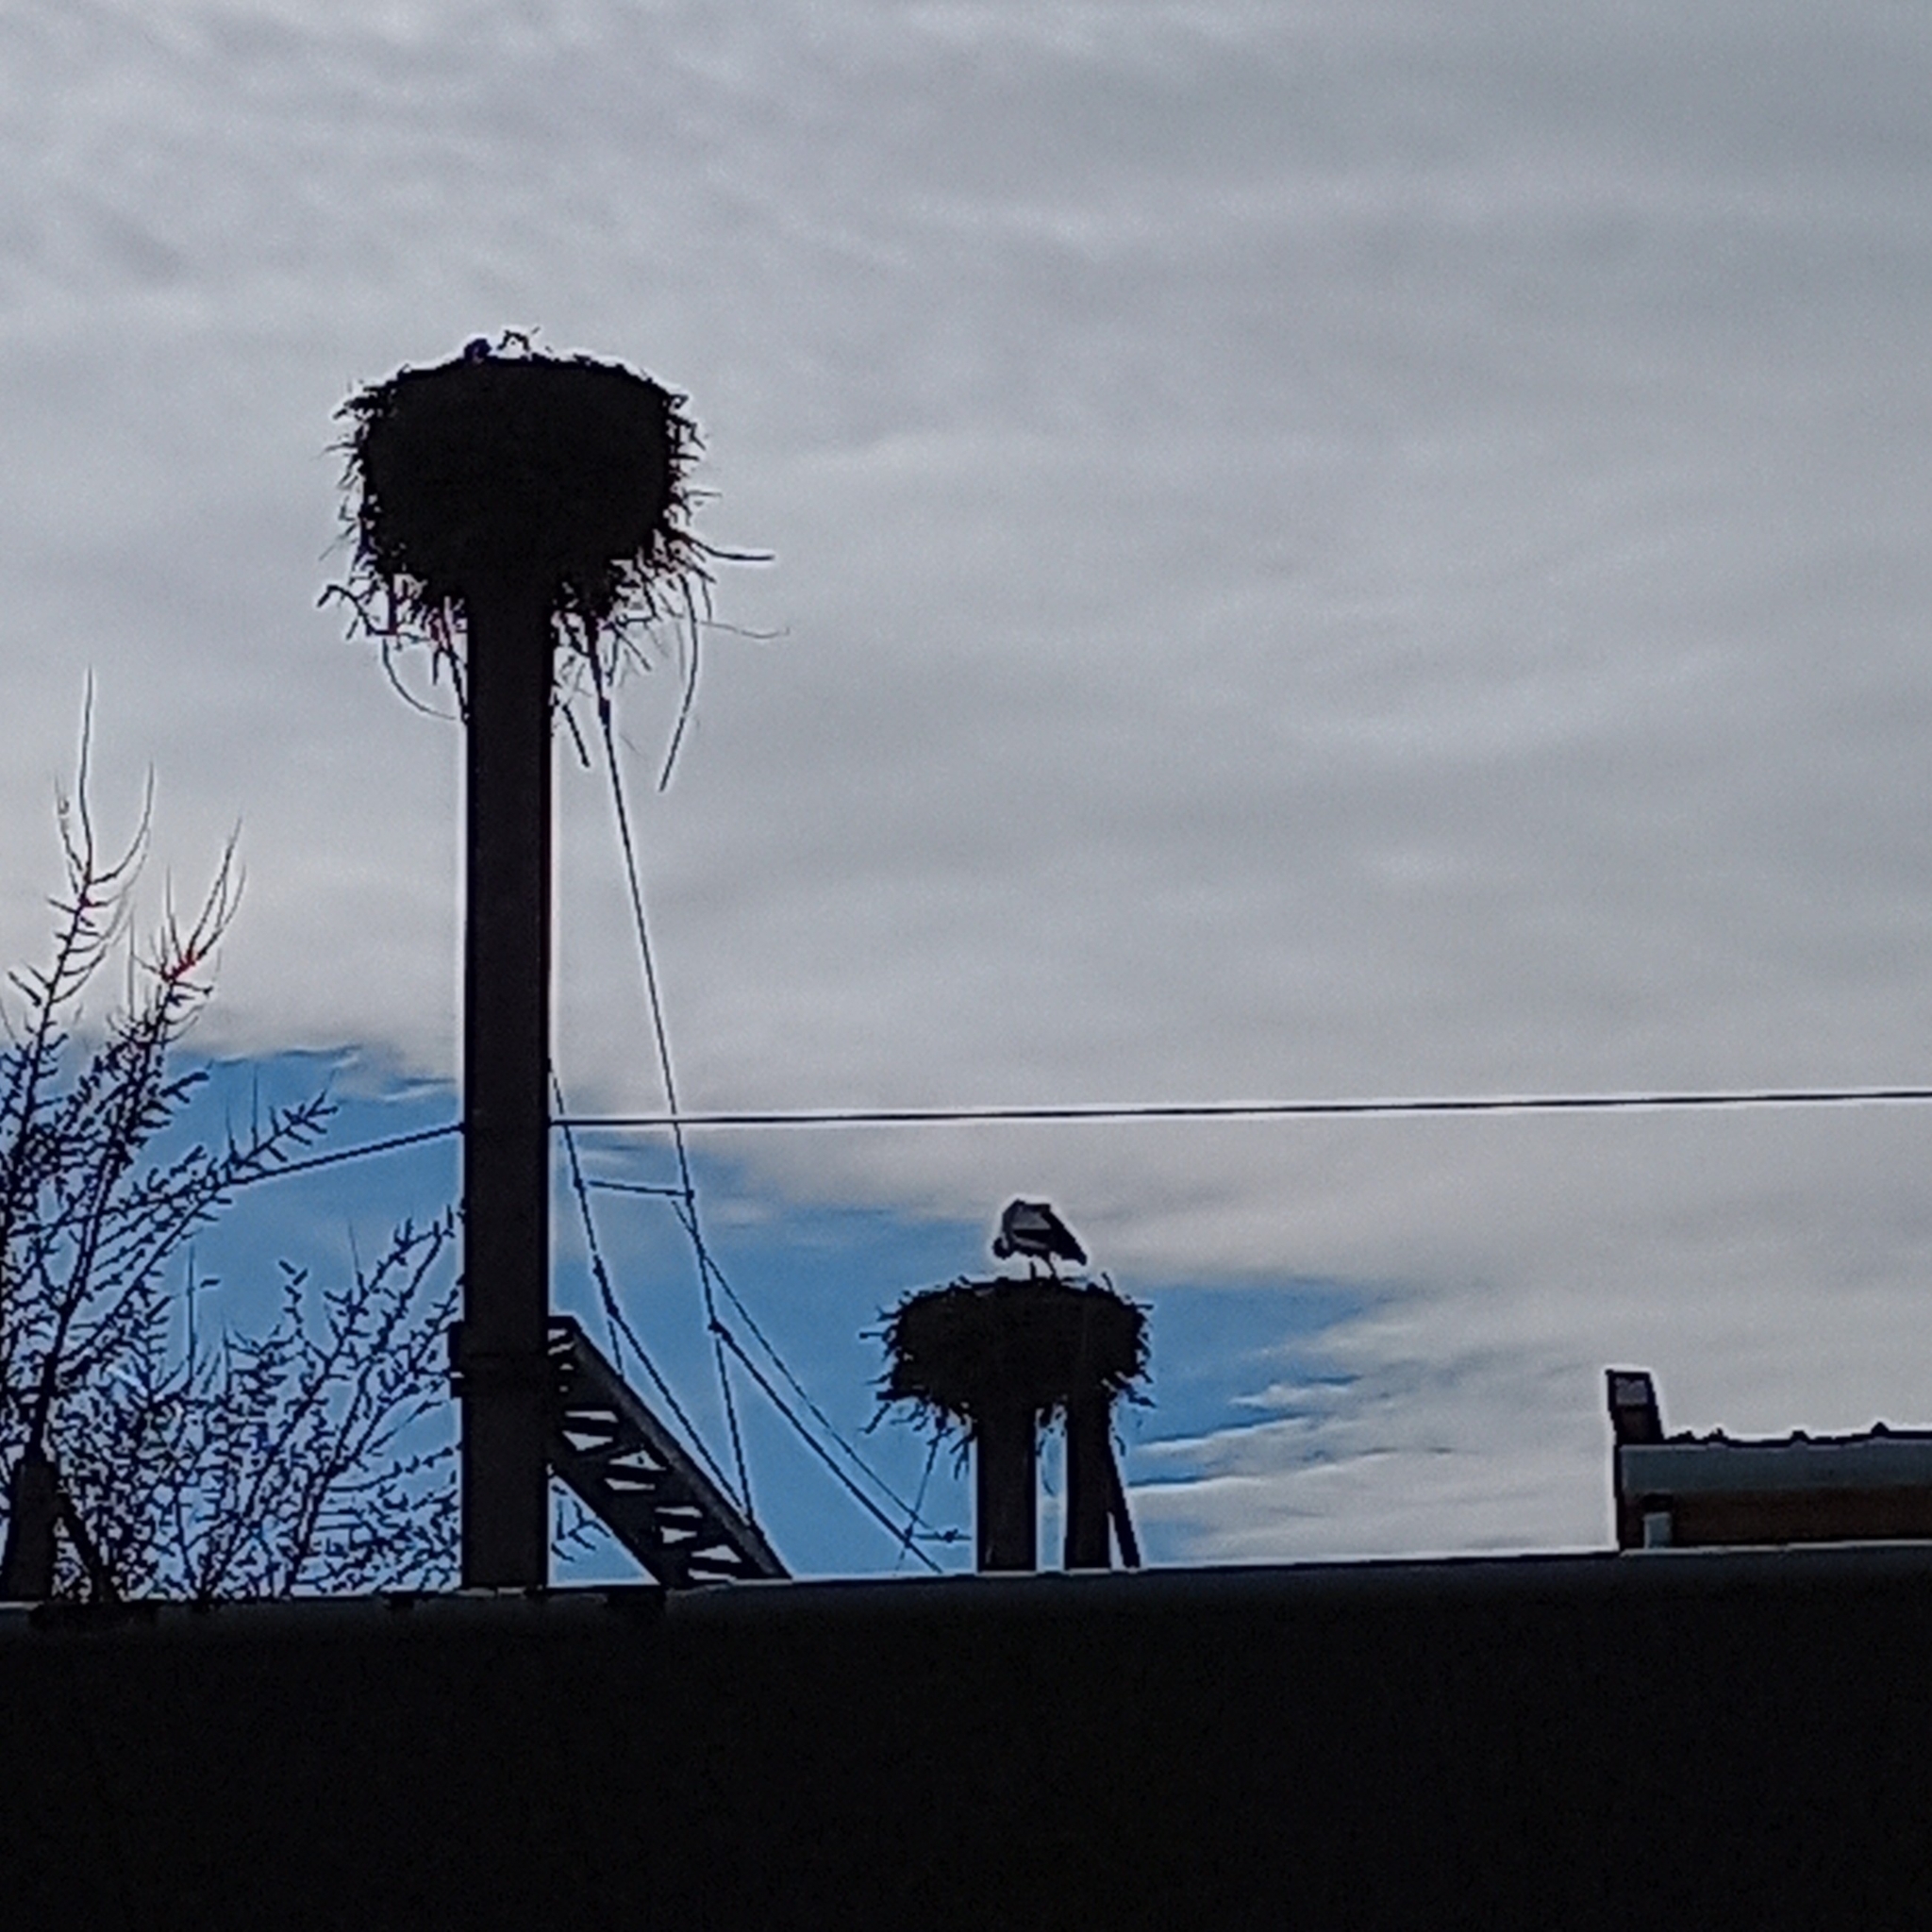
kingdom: Animalia
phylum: Chordata
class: Aves
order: Ciconiiformes
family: Ciconiidae
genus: Ciconia
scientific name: Ciconia ciconia
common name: White stork
